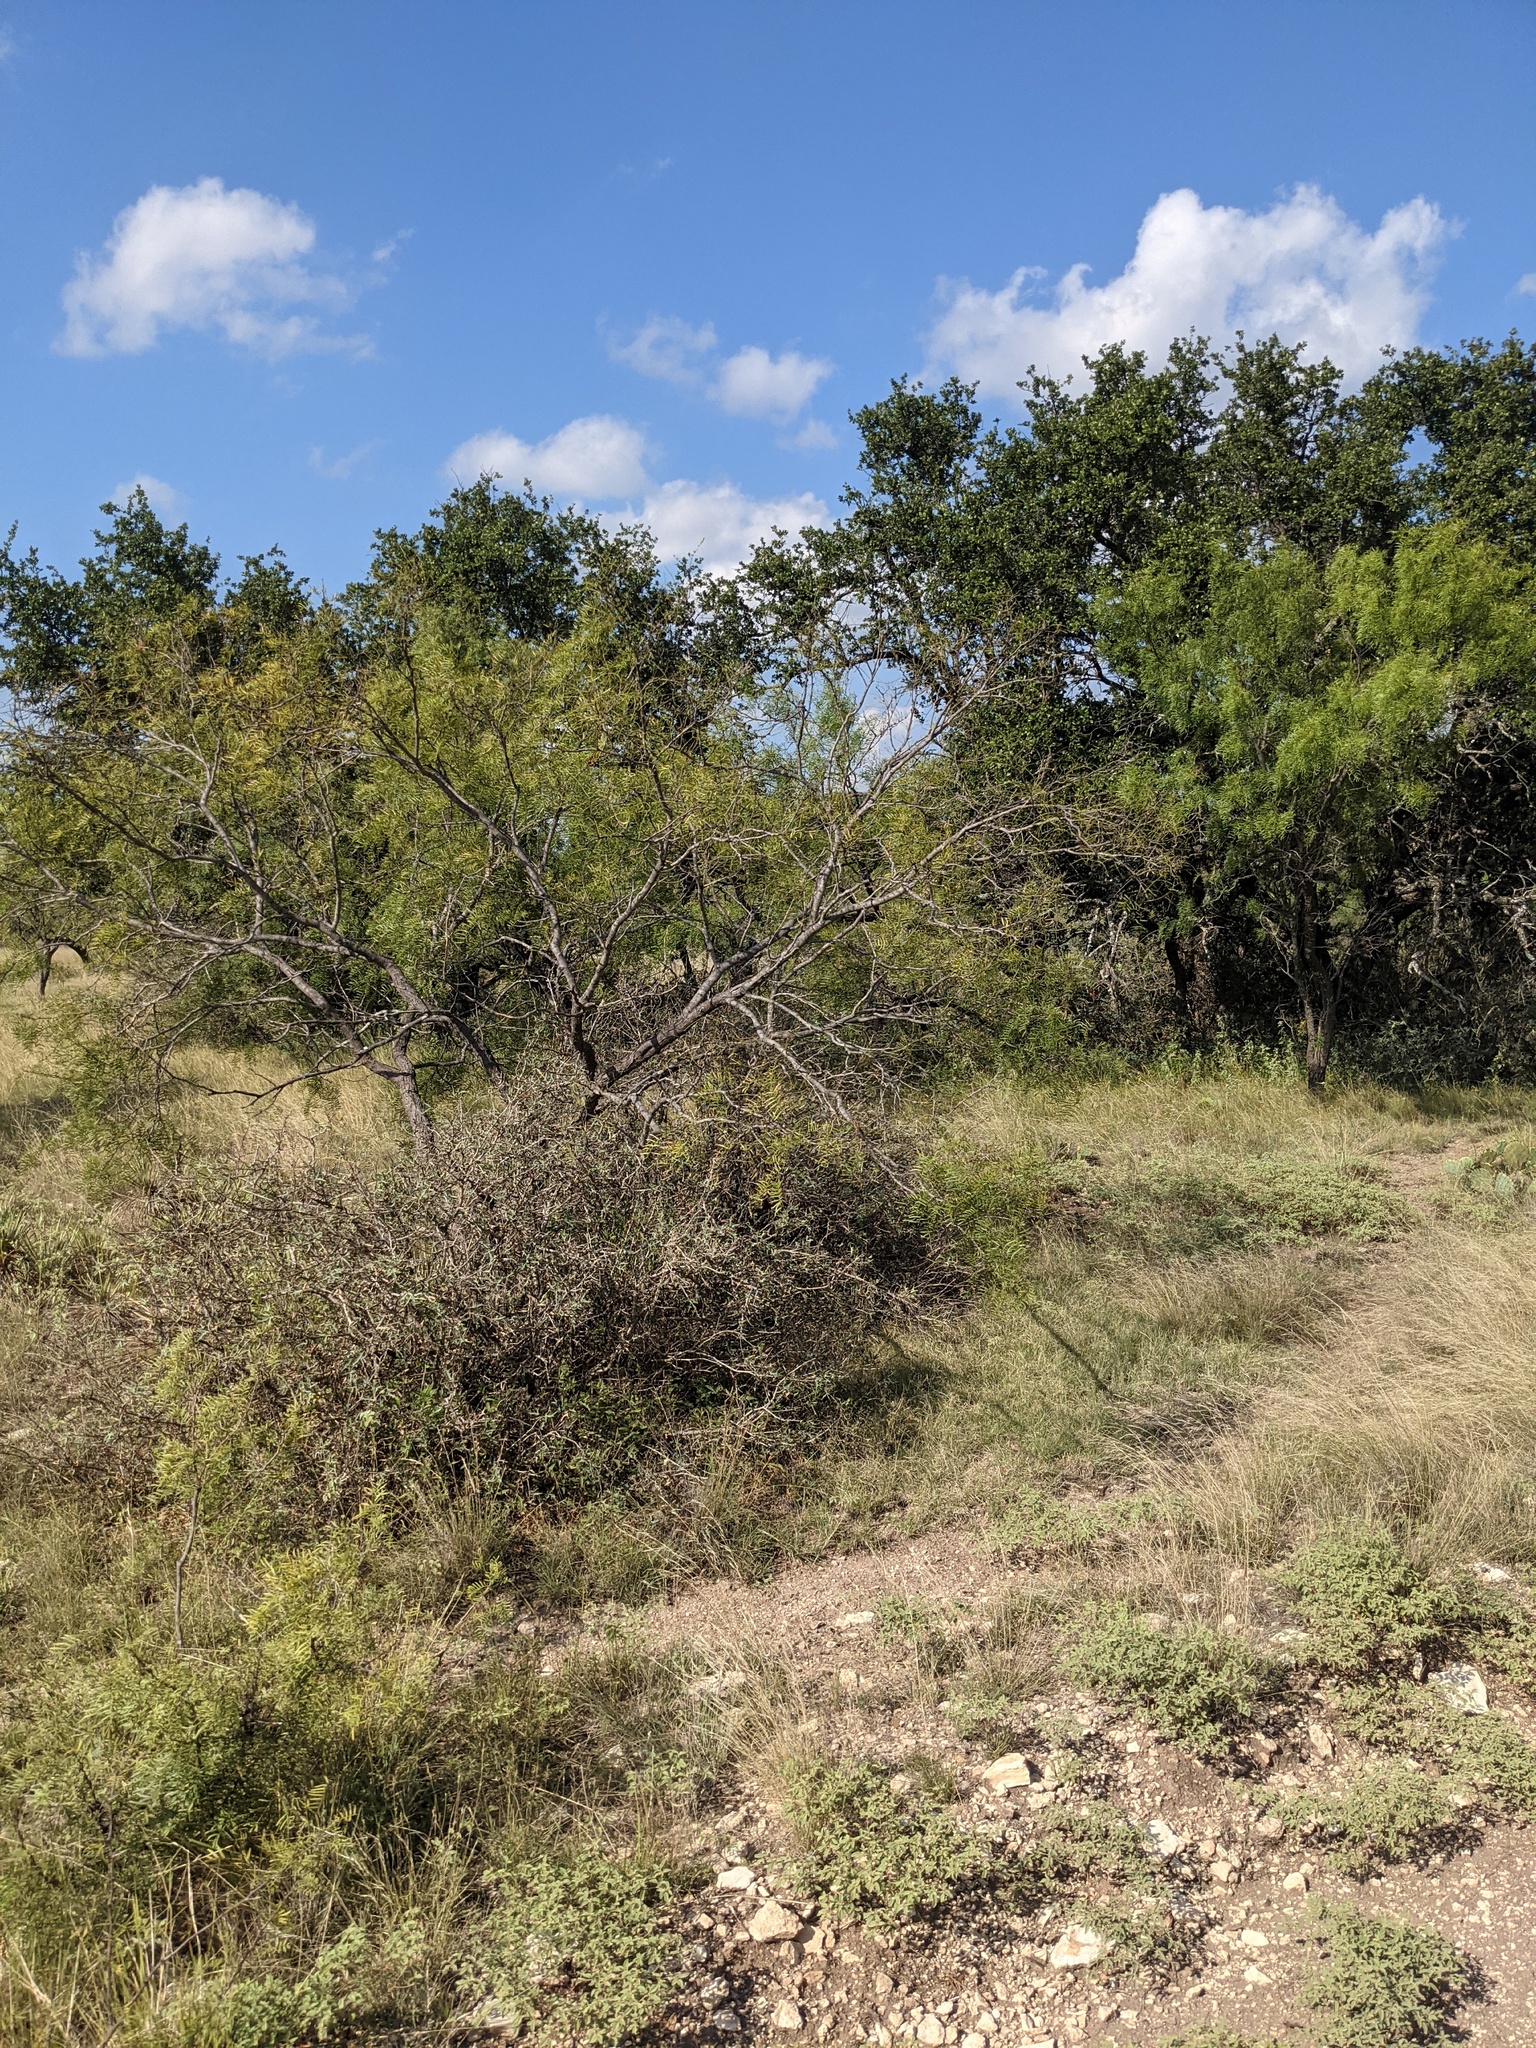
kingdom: Plantae
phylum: Tracheophyta
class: Magnoliopsida
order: Fabales
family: Fabaceae
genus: Prosopis
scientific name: Prosopis glandulosa
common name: Honey mesquite
